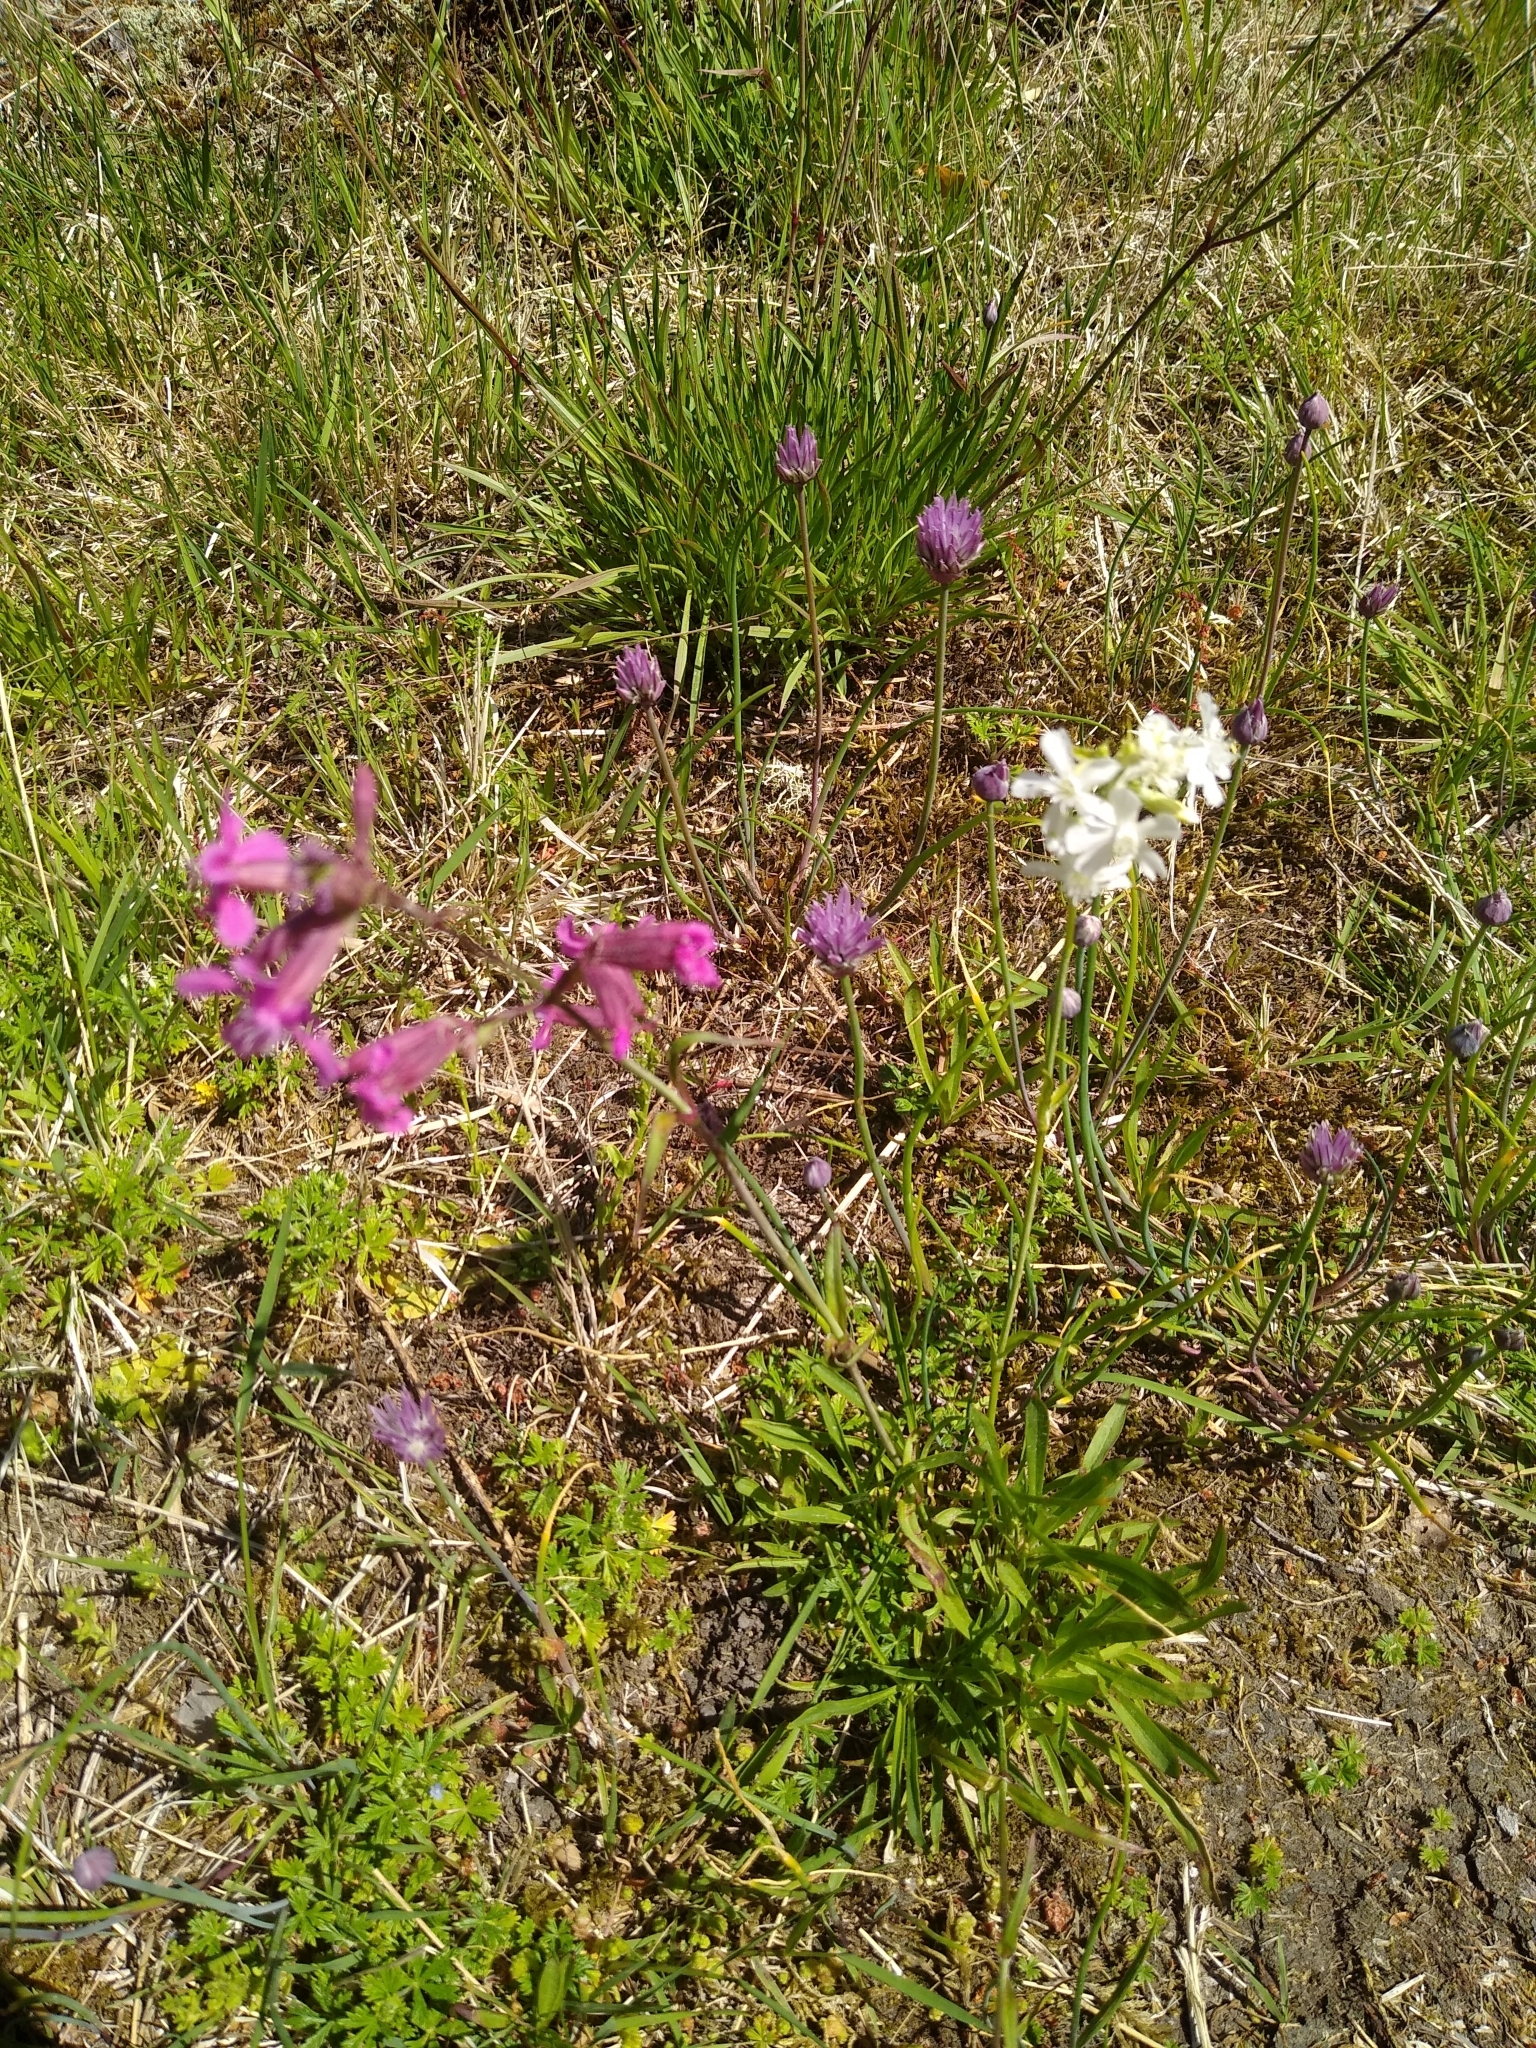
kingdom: Plantae
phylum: Tracheophyta
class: Magnoliopsida
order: Caryophyllales
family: Caryophyllaceae
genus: Viscaria
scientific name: Viscaria vulgaris
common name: Clammy campion
